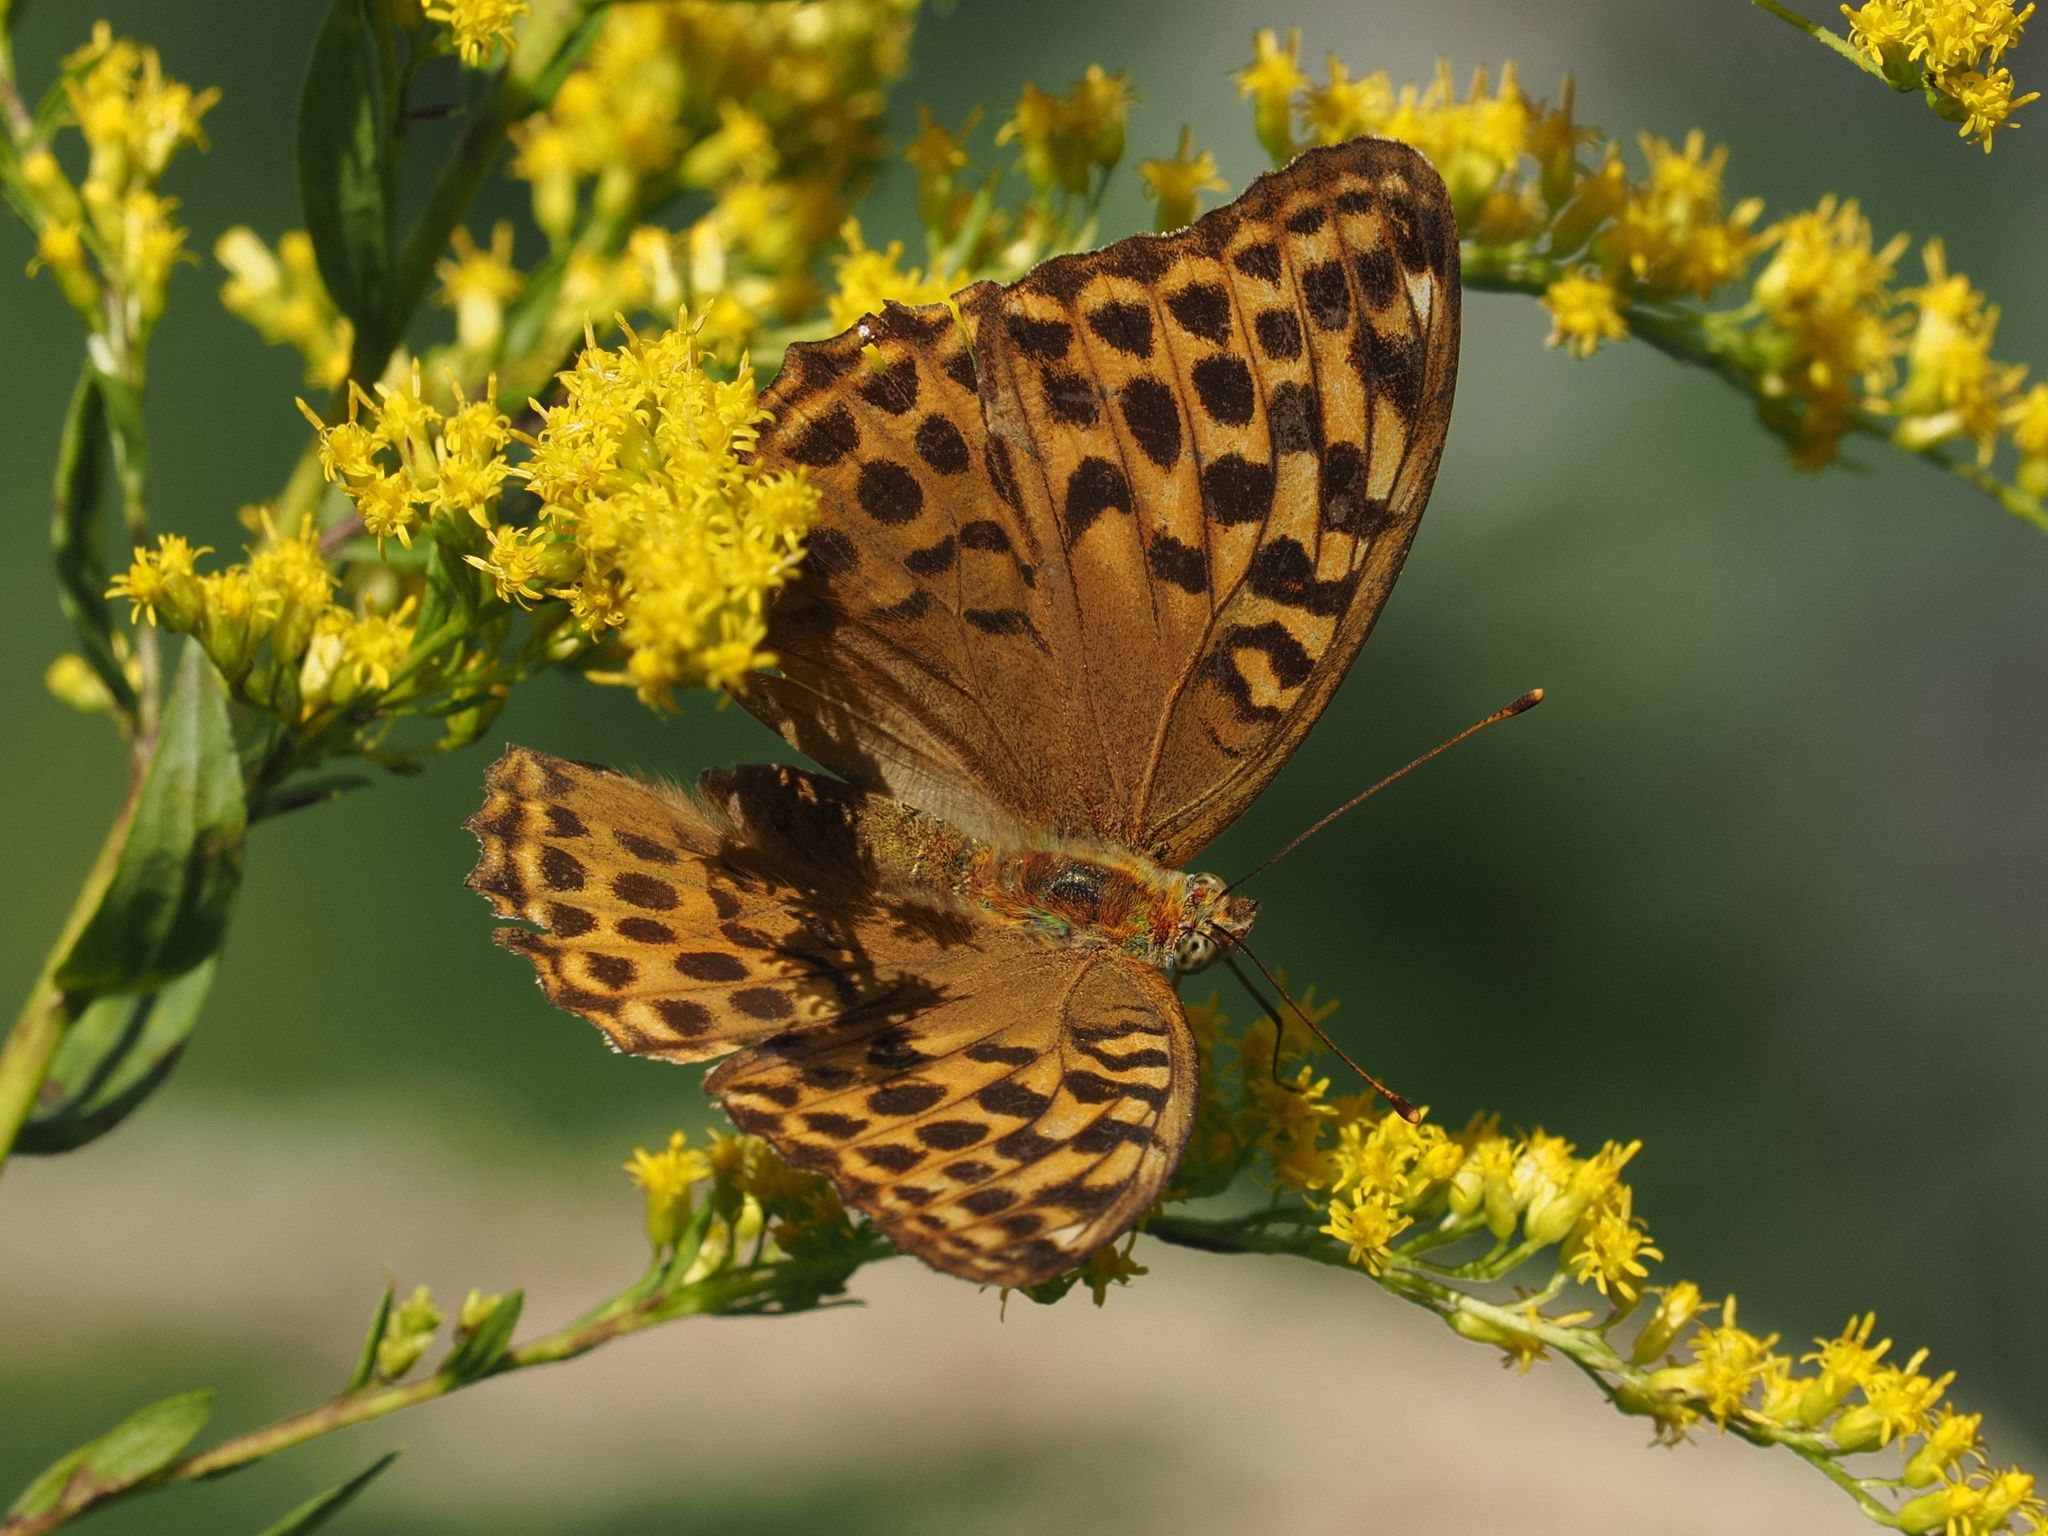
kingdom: Animalia
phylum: Arthropoda
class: Insecta
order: Lepidoptera
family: Nymphalidae
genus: Argynnis
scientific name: Argynnis paphia
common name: Silver-washed fritillary
